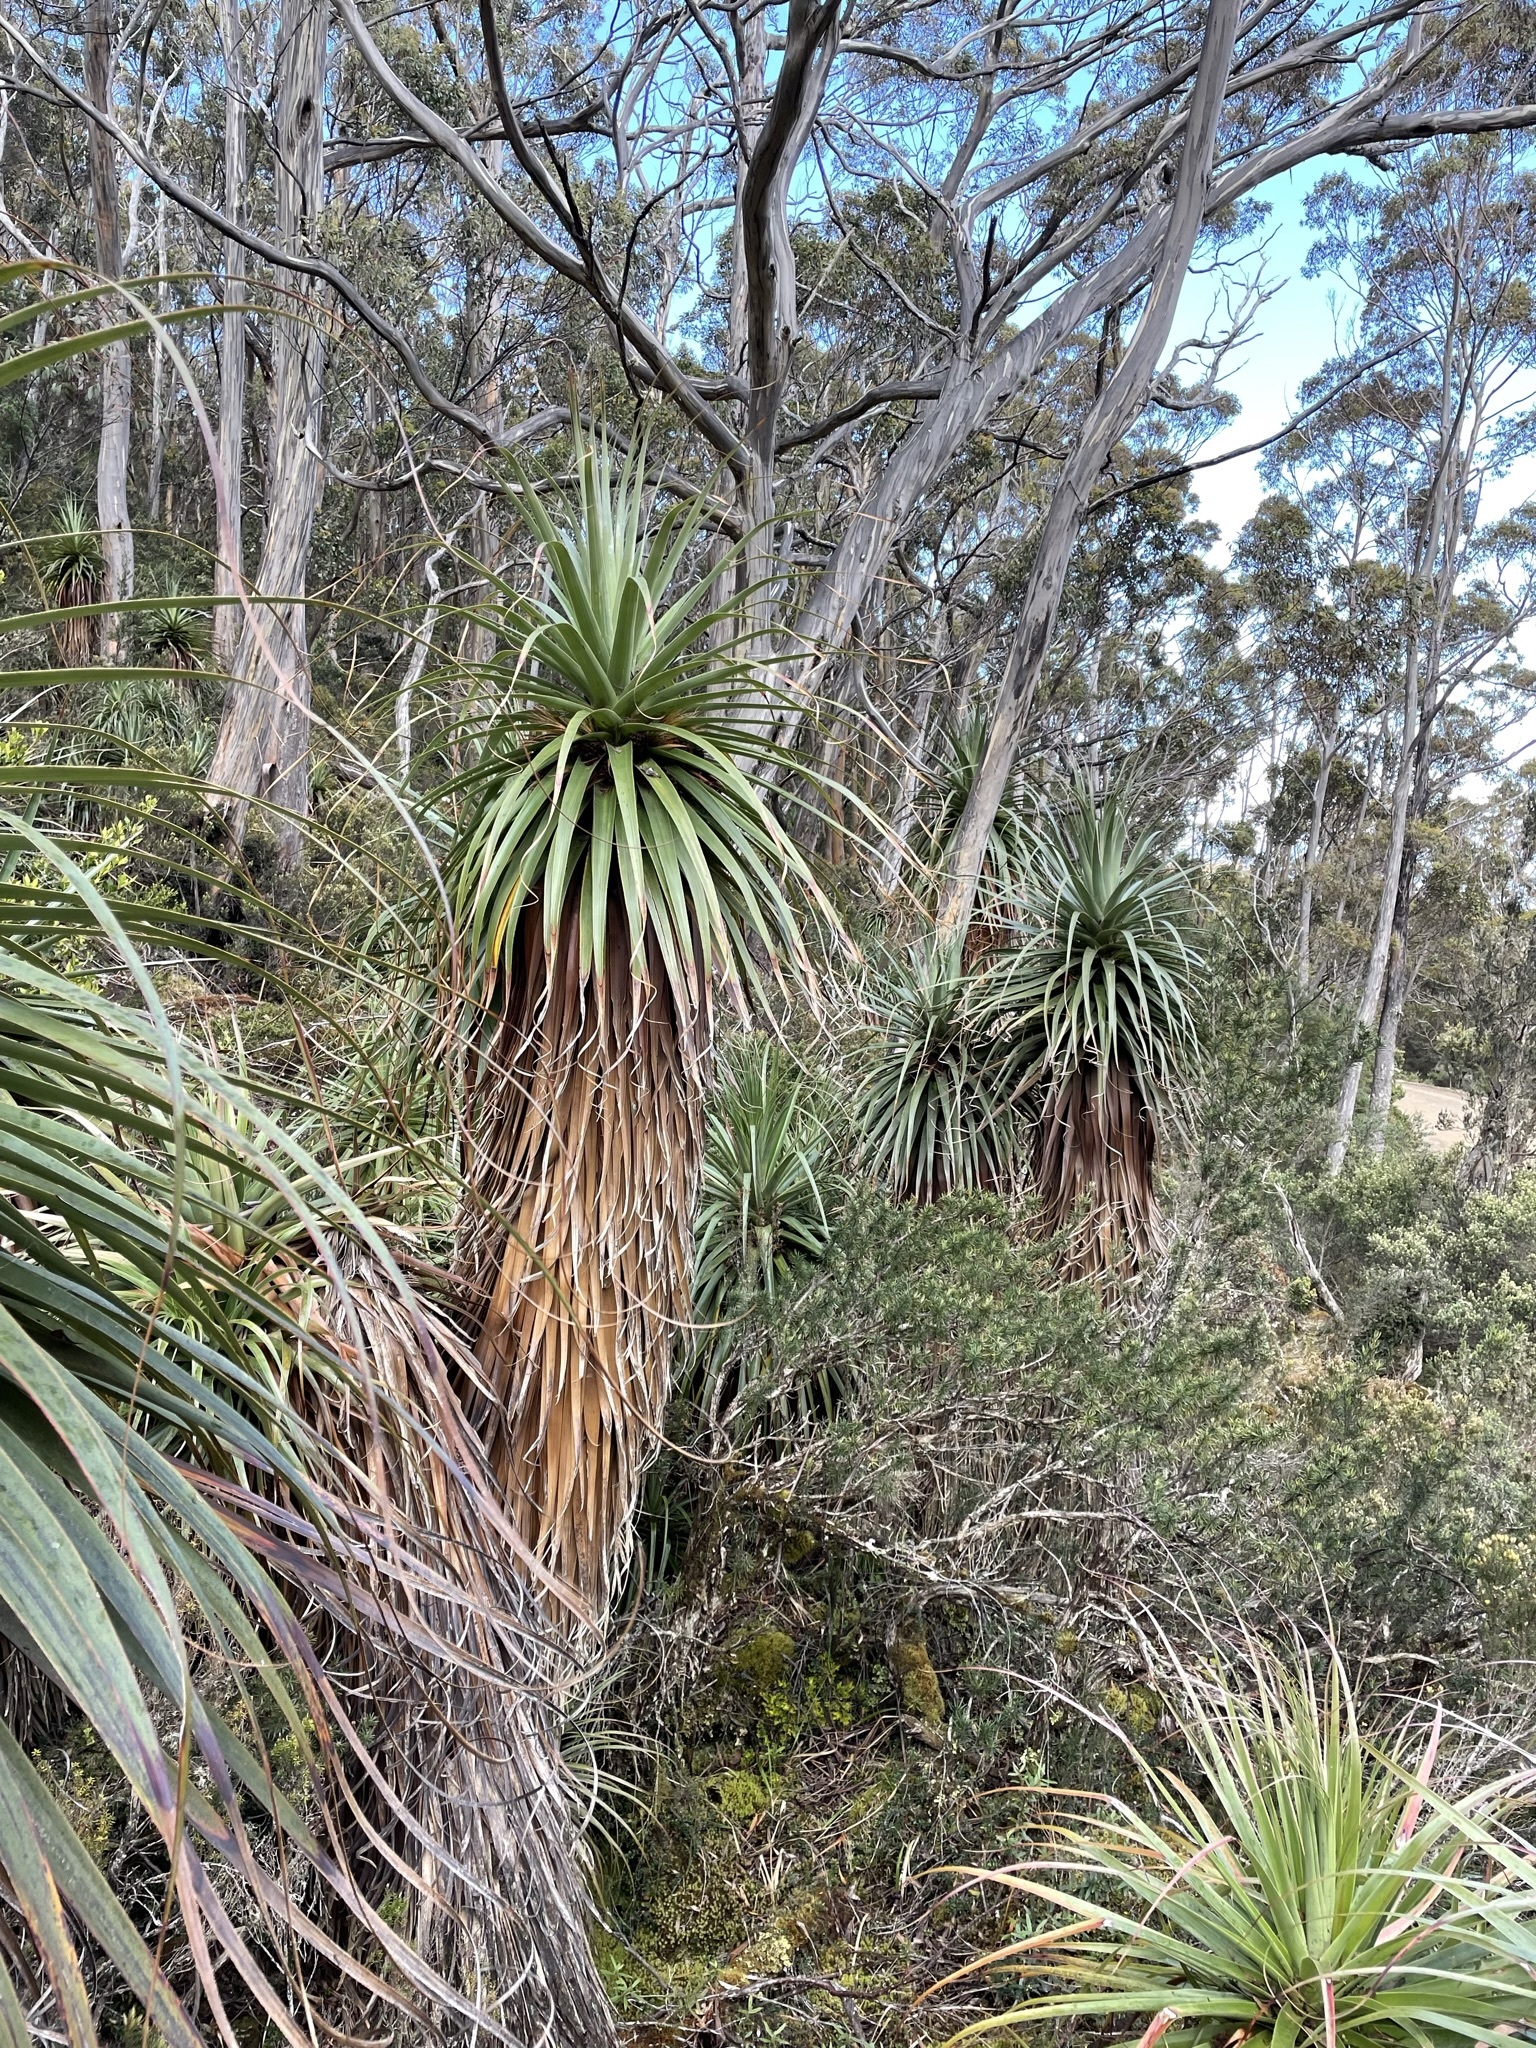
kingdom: Plantae
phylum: Tracheophyta
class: Magnoliopsida
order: Ericales
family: Ericaceae
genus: Dracophyllum
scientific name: Dracophyllum pandanifolium
